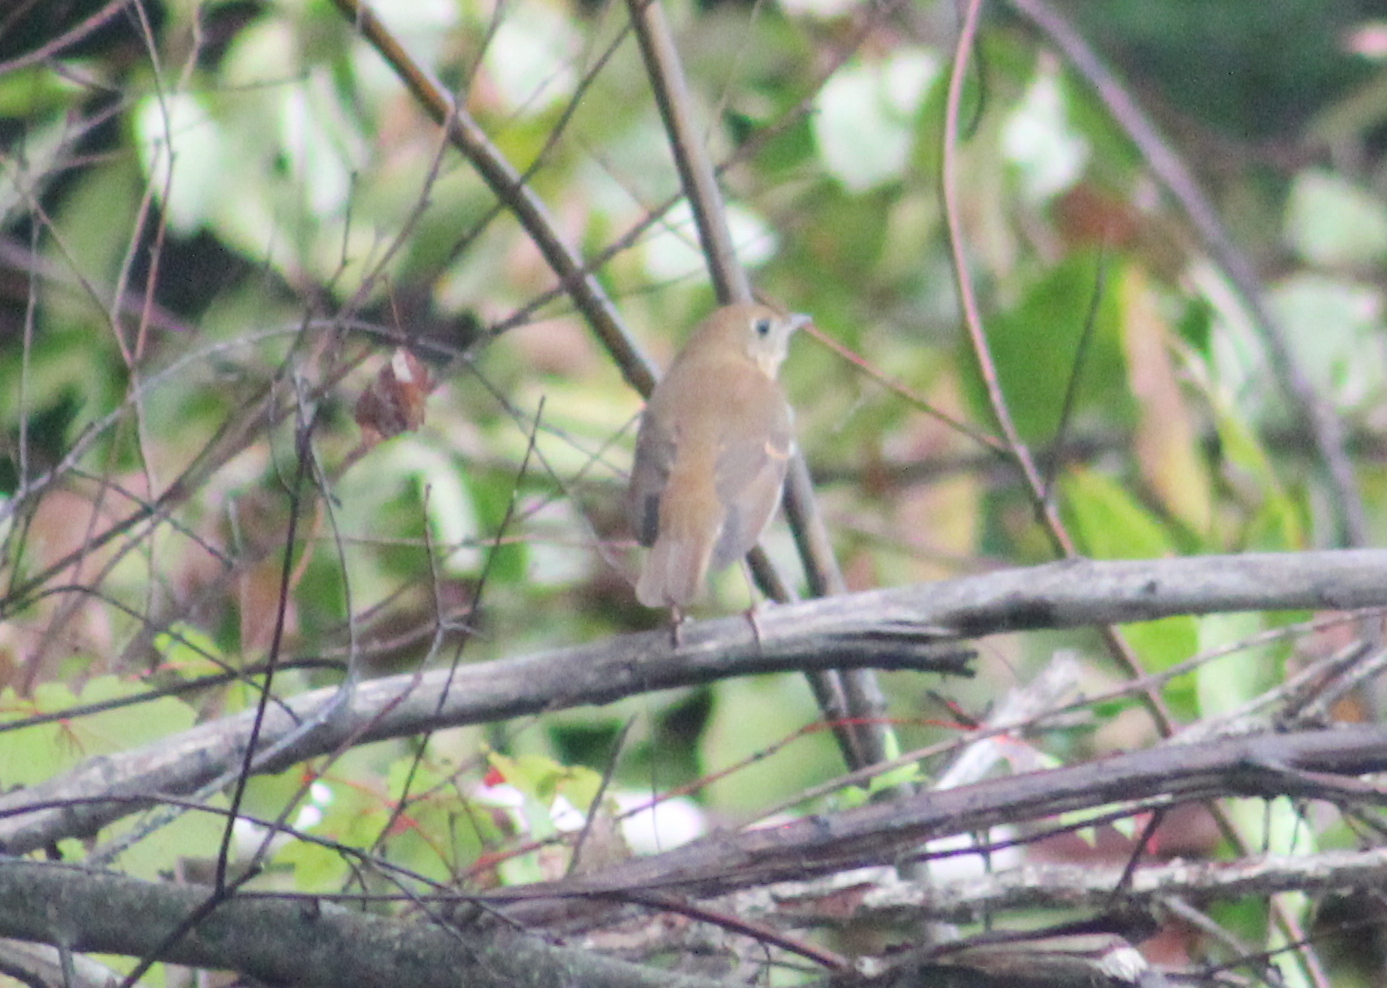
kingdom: Animalia
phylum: Chordata
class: Aves
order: Passeriformes
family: Turdidae
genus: Catharus
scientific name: Catharus fuscescens
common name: Veery
